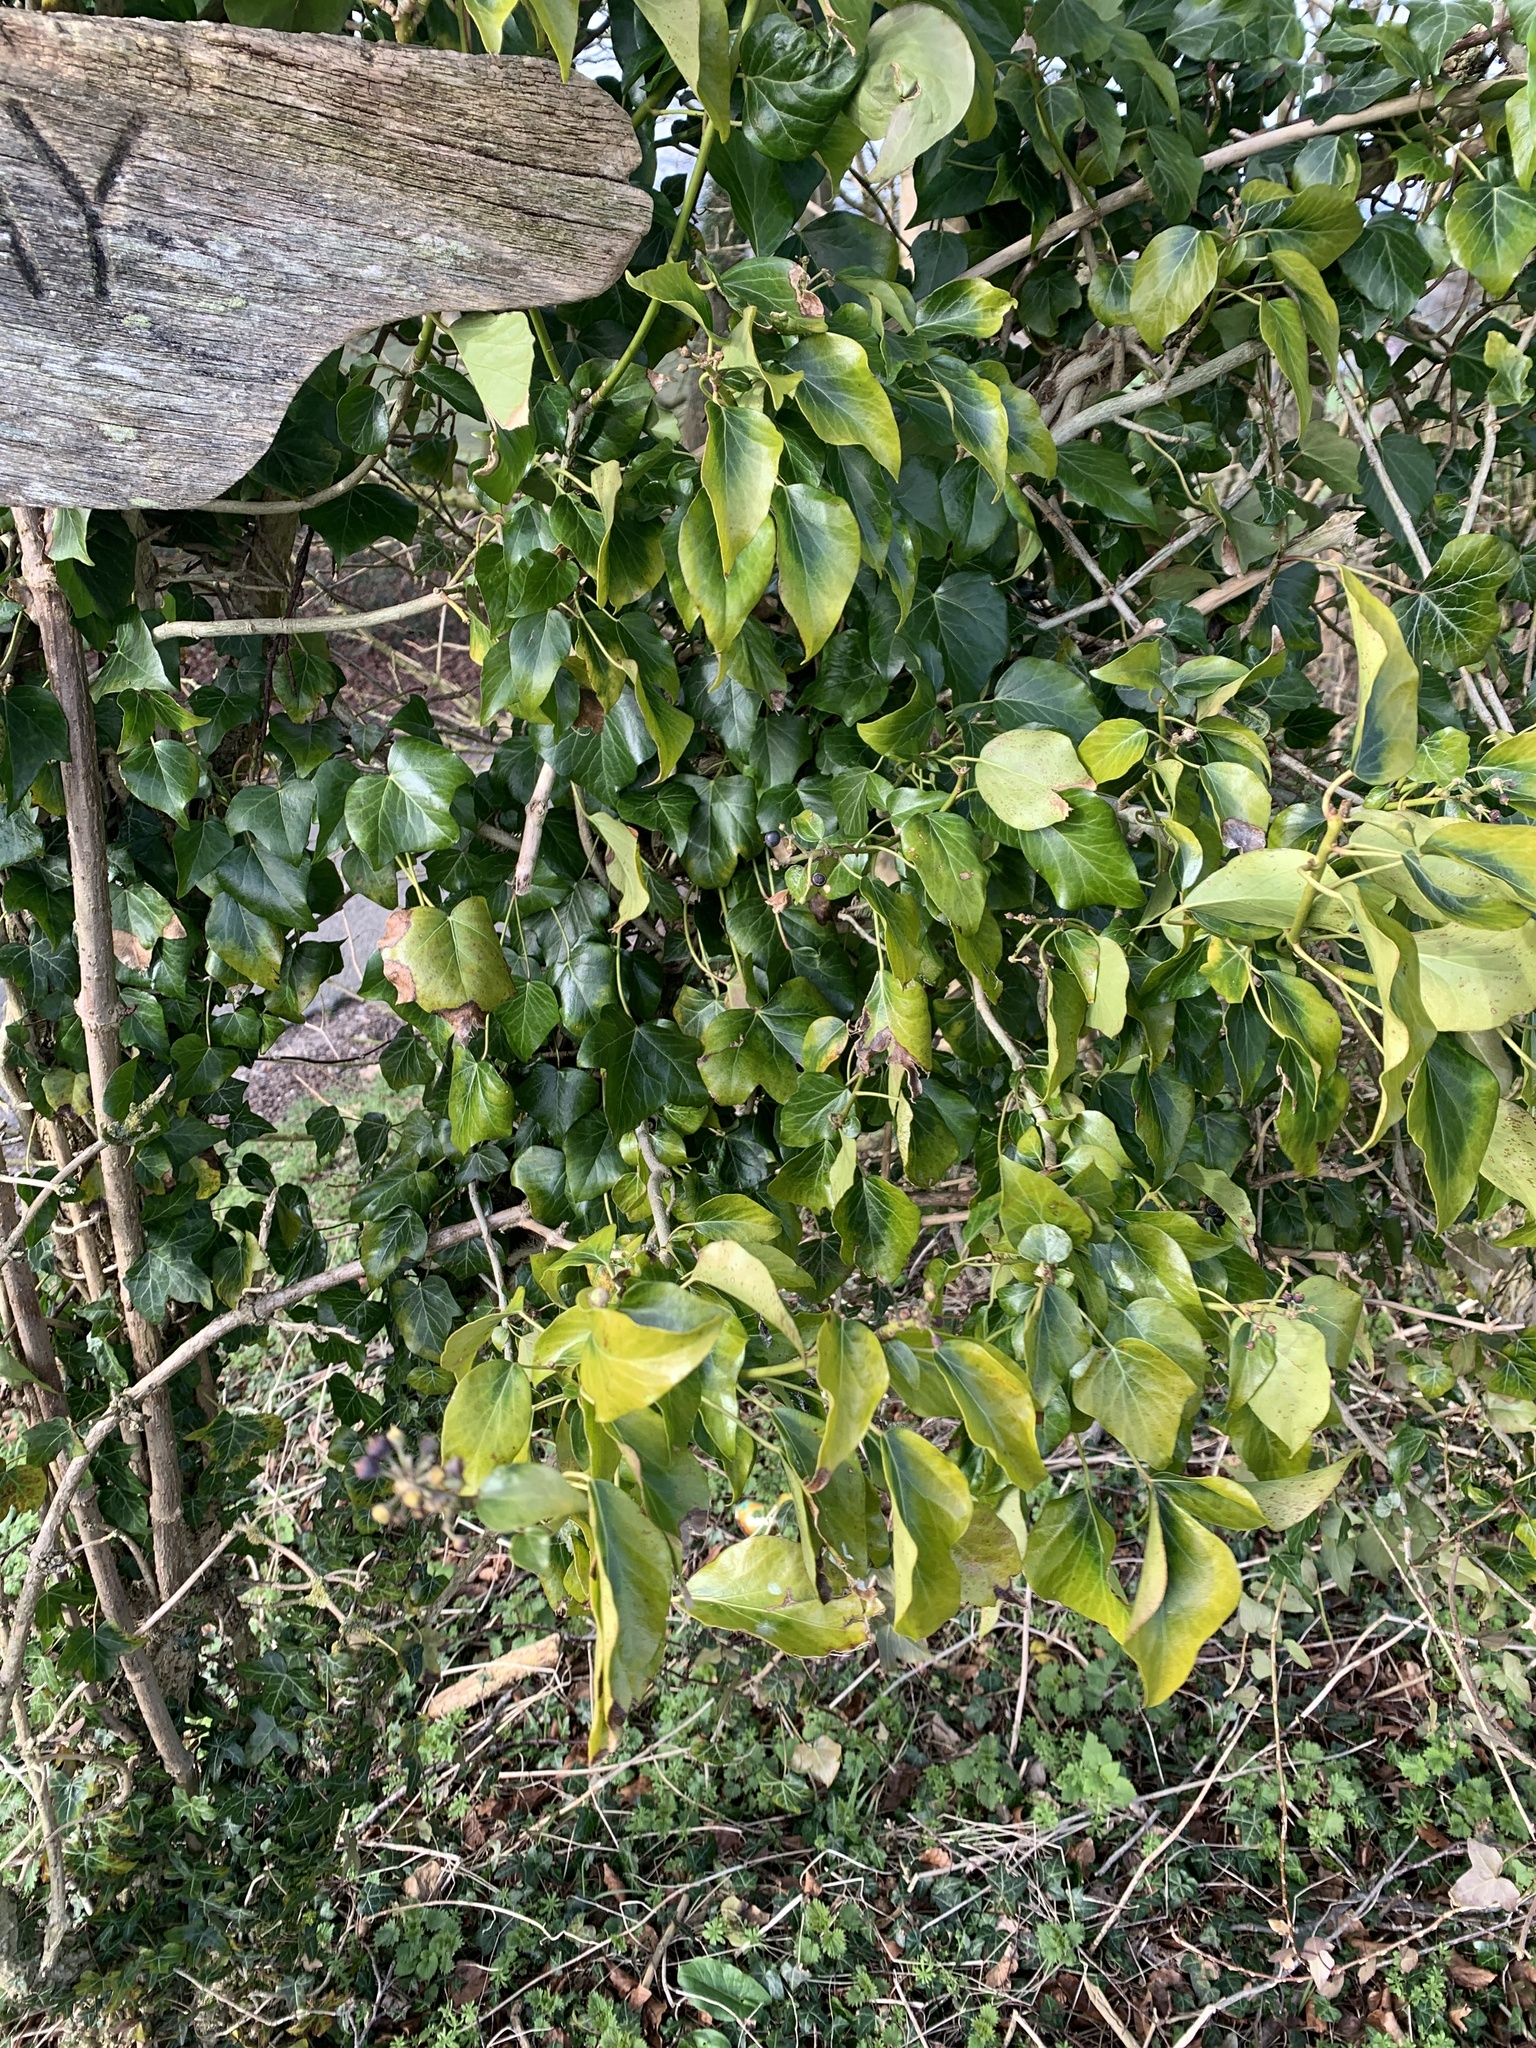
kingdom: Plantae
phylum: Tracheophyta
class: Magnoliopsida
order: Apiales
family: Araliaceae
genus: Hedera
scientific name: Hedera helix
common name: Ivy
